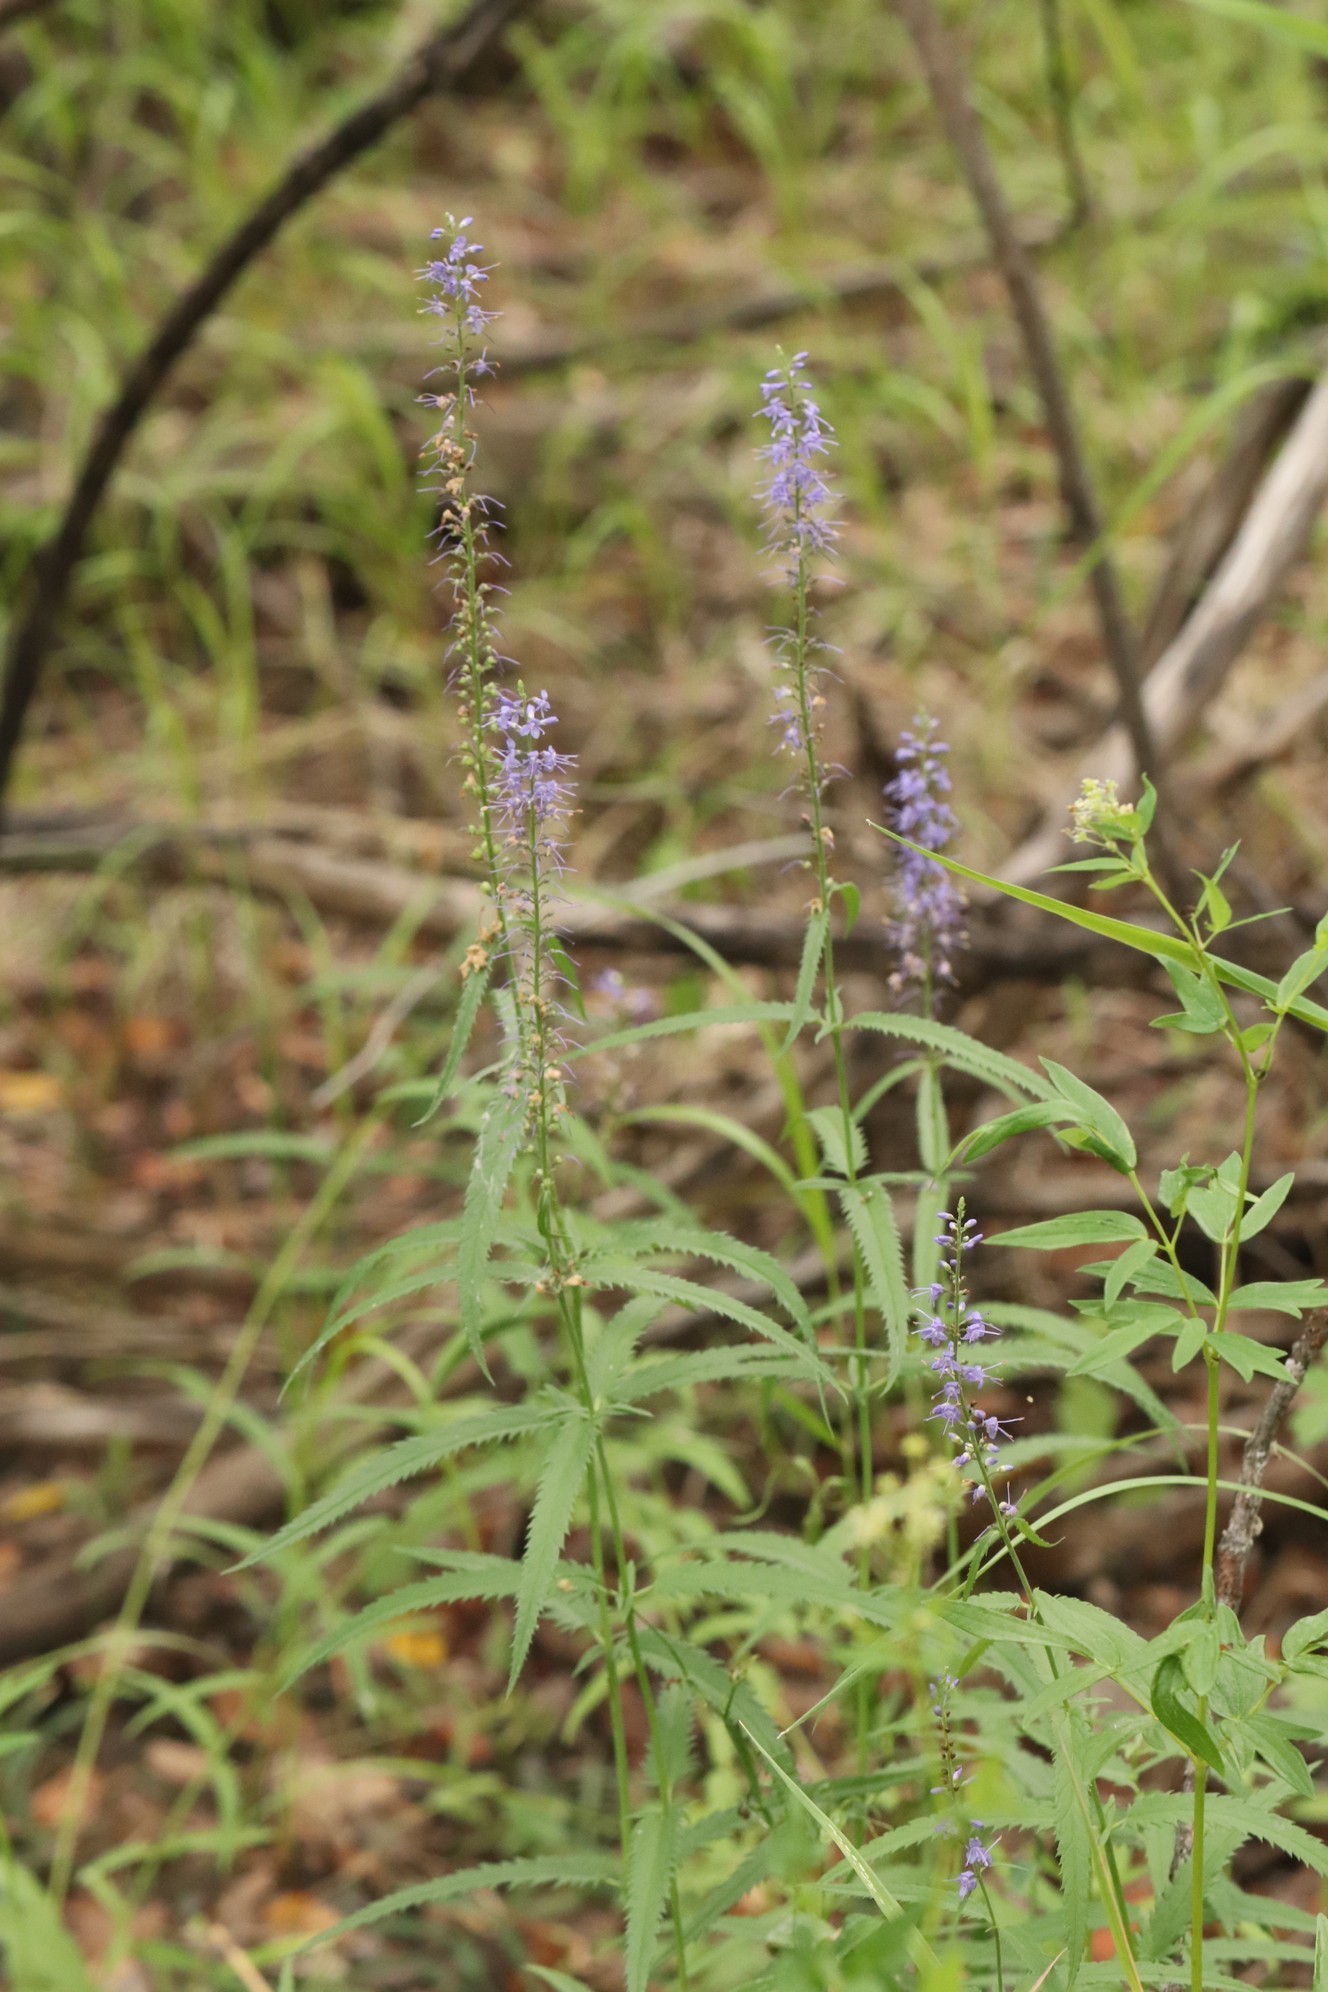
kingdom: Plantae
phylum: Tracheophyta
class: Magnoliopsida
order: Lamiales
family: Plantaginaceae
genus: Veronica
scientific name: Veronica longifolia
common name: Garden speedwell
